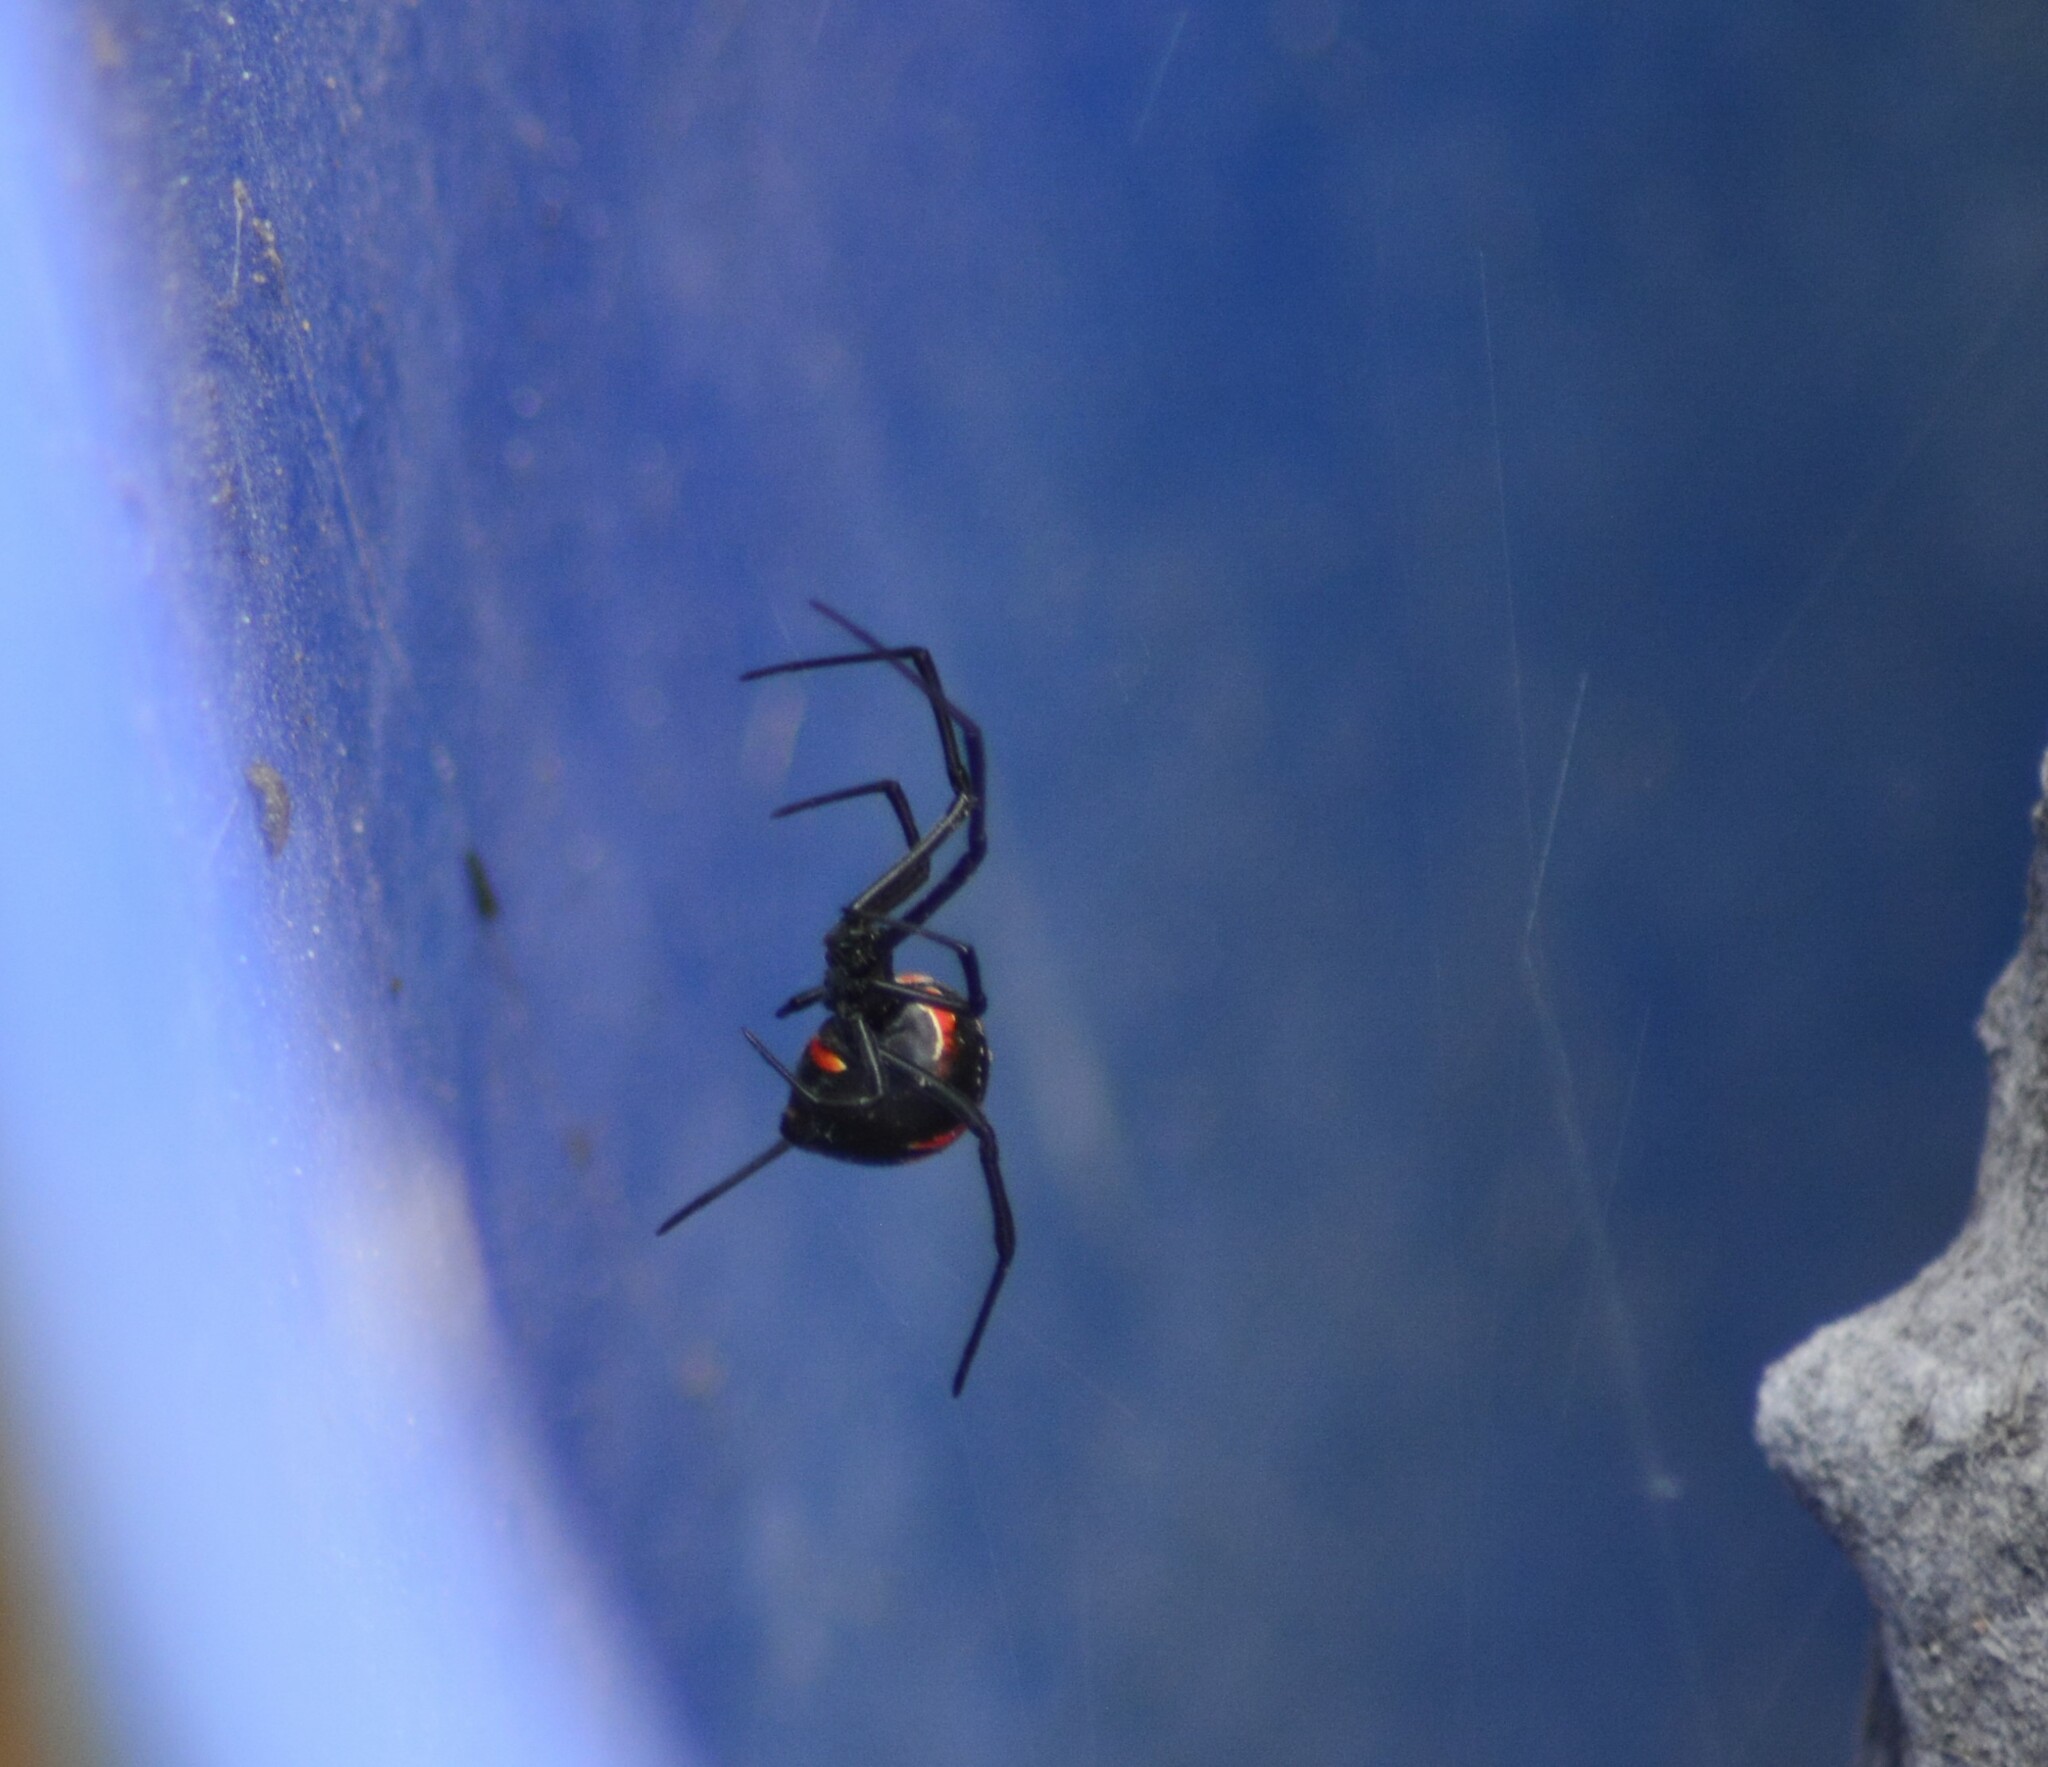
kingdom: Animalia
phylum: Arthropoda
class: Arachnida
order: Araneae
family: Theridiidae
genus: Latrodectus
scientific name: Latrodectus mirabilis
